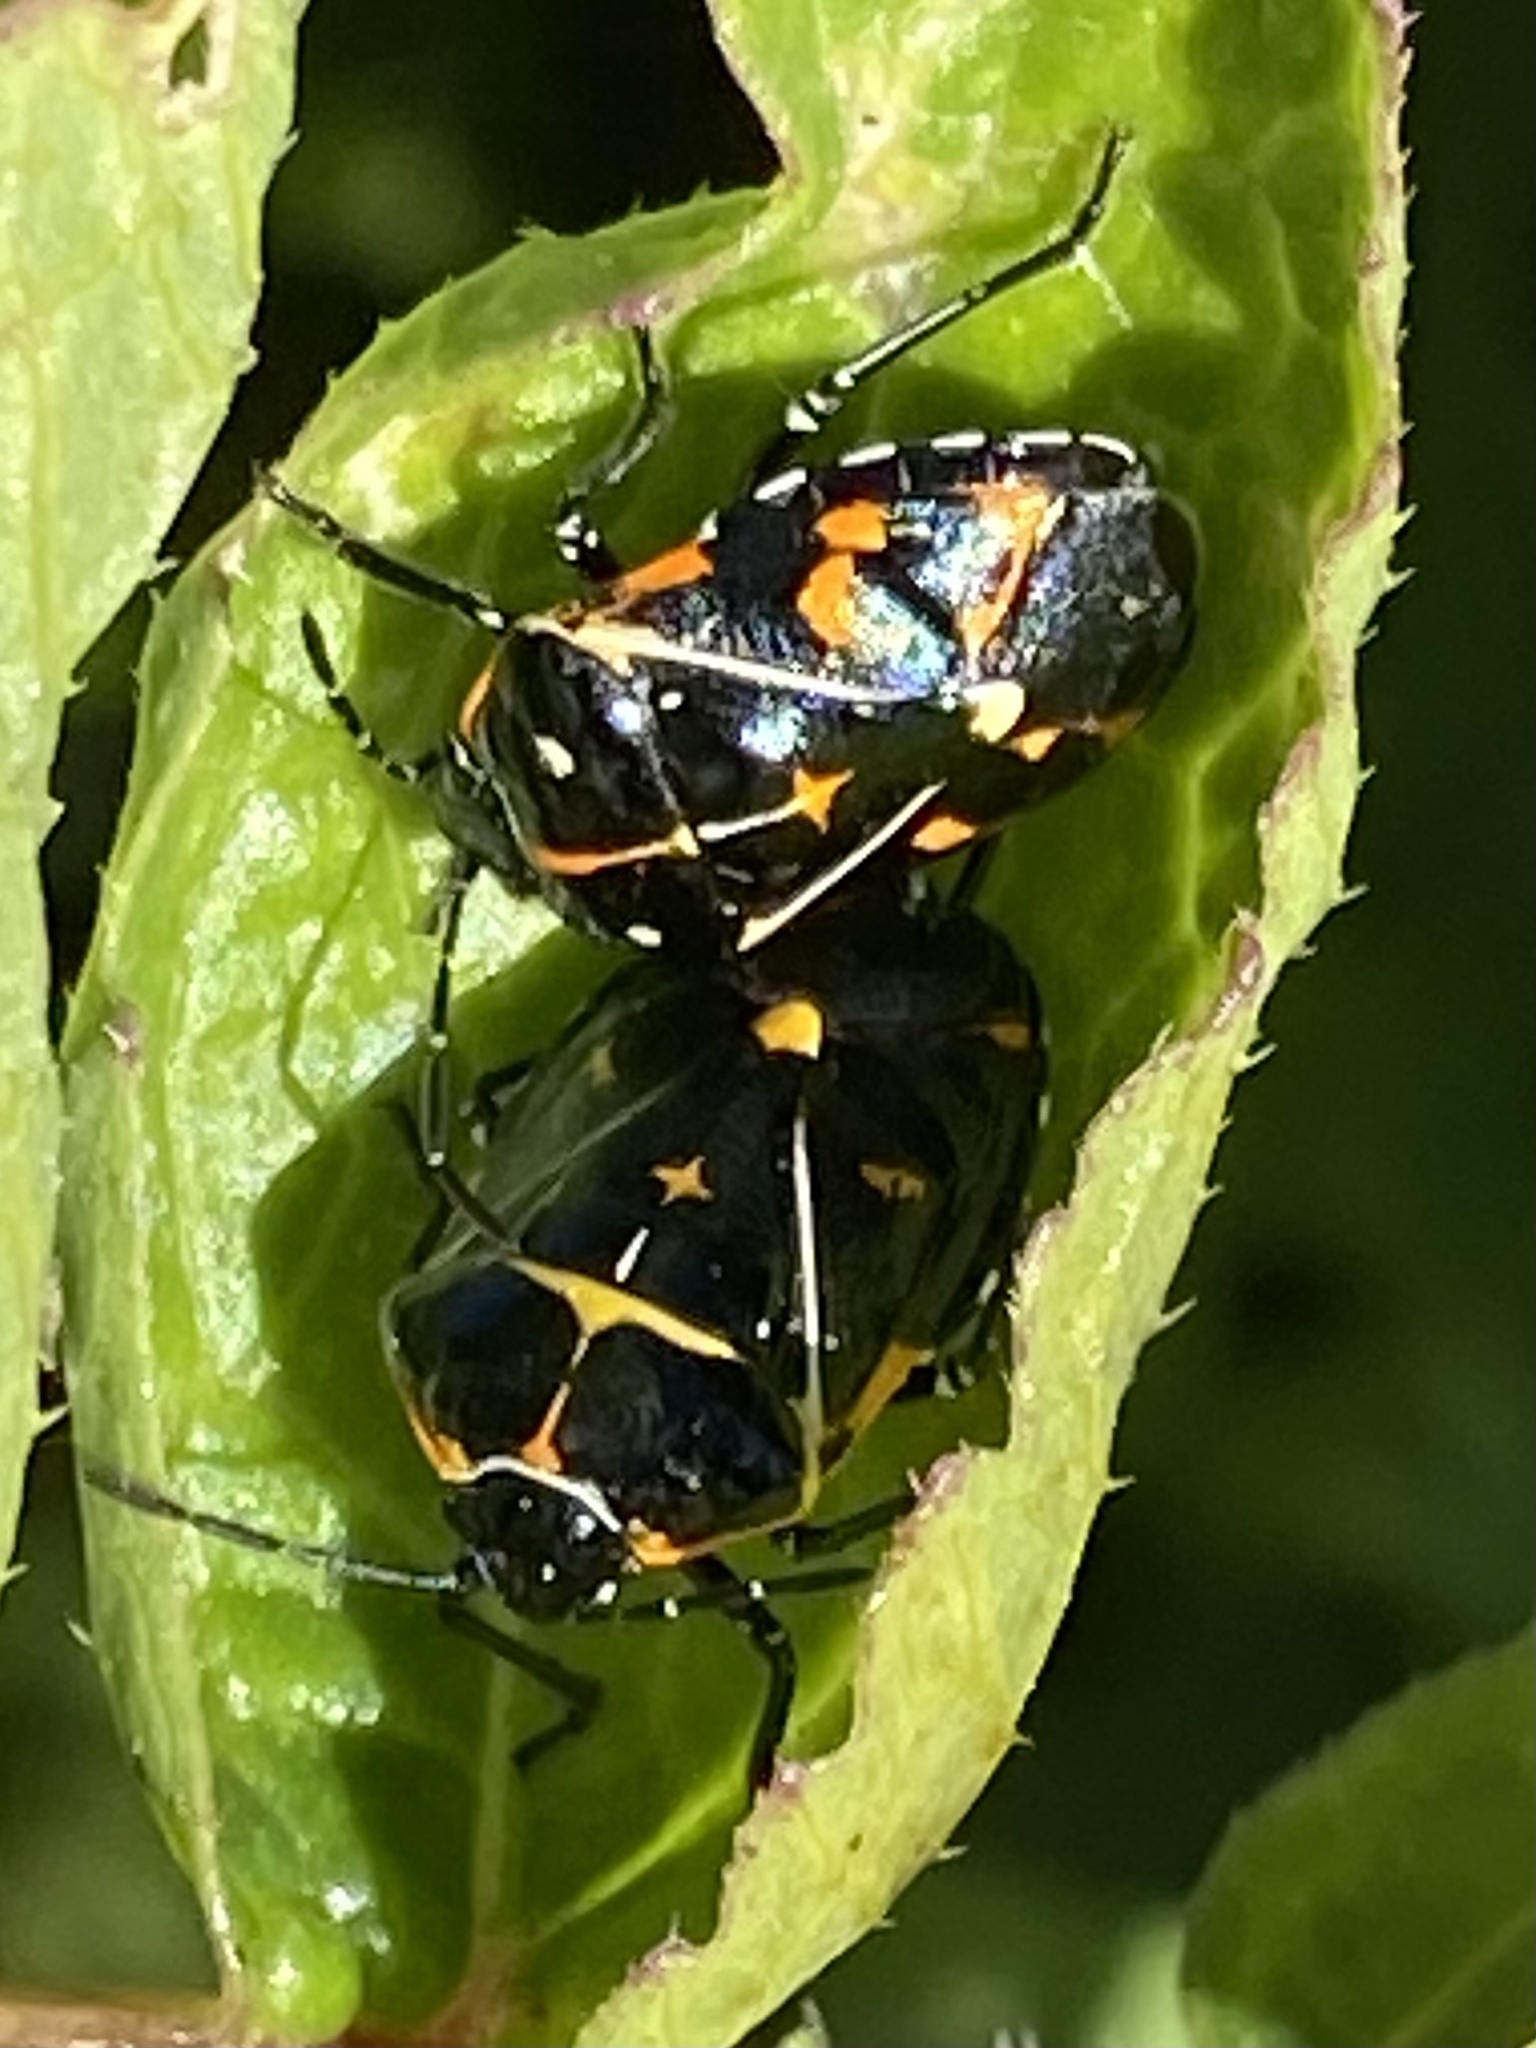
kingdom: Animalia
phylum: Arthropoda
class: Insecta
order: Hemiptera
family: Pentatomidae
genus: Murgantia
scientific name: Murgantia histrionica
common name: Harlequin bug
